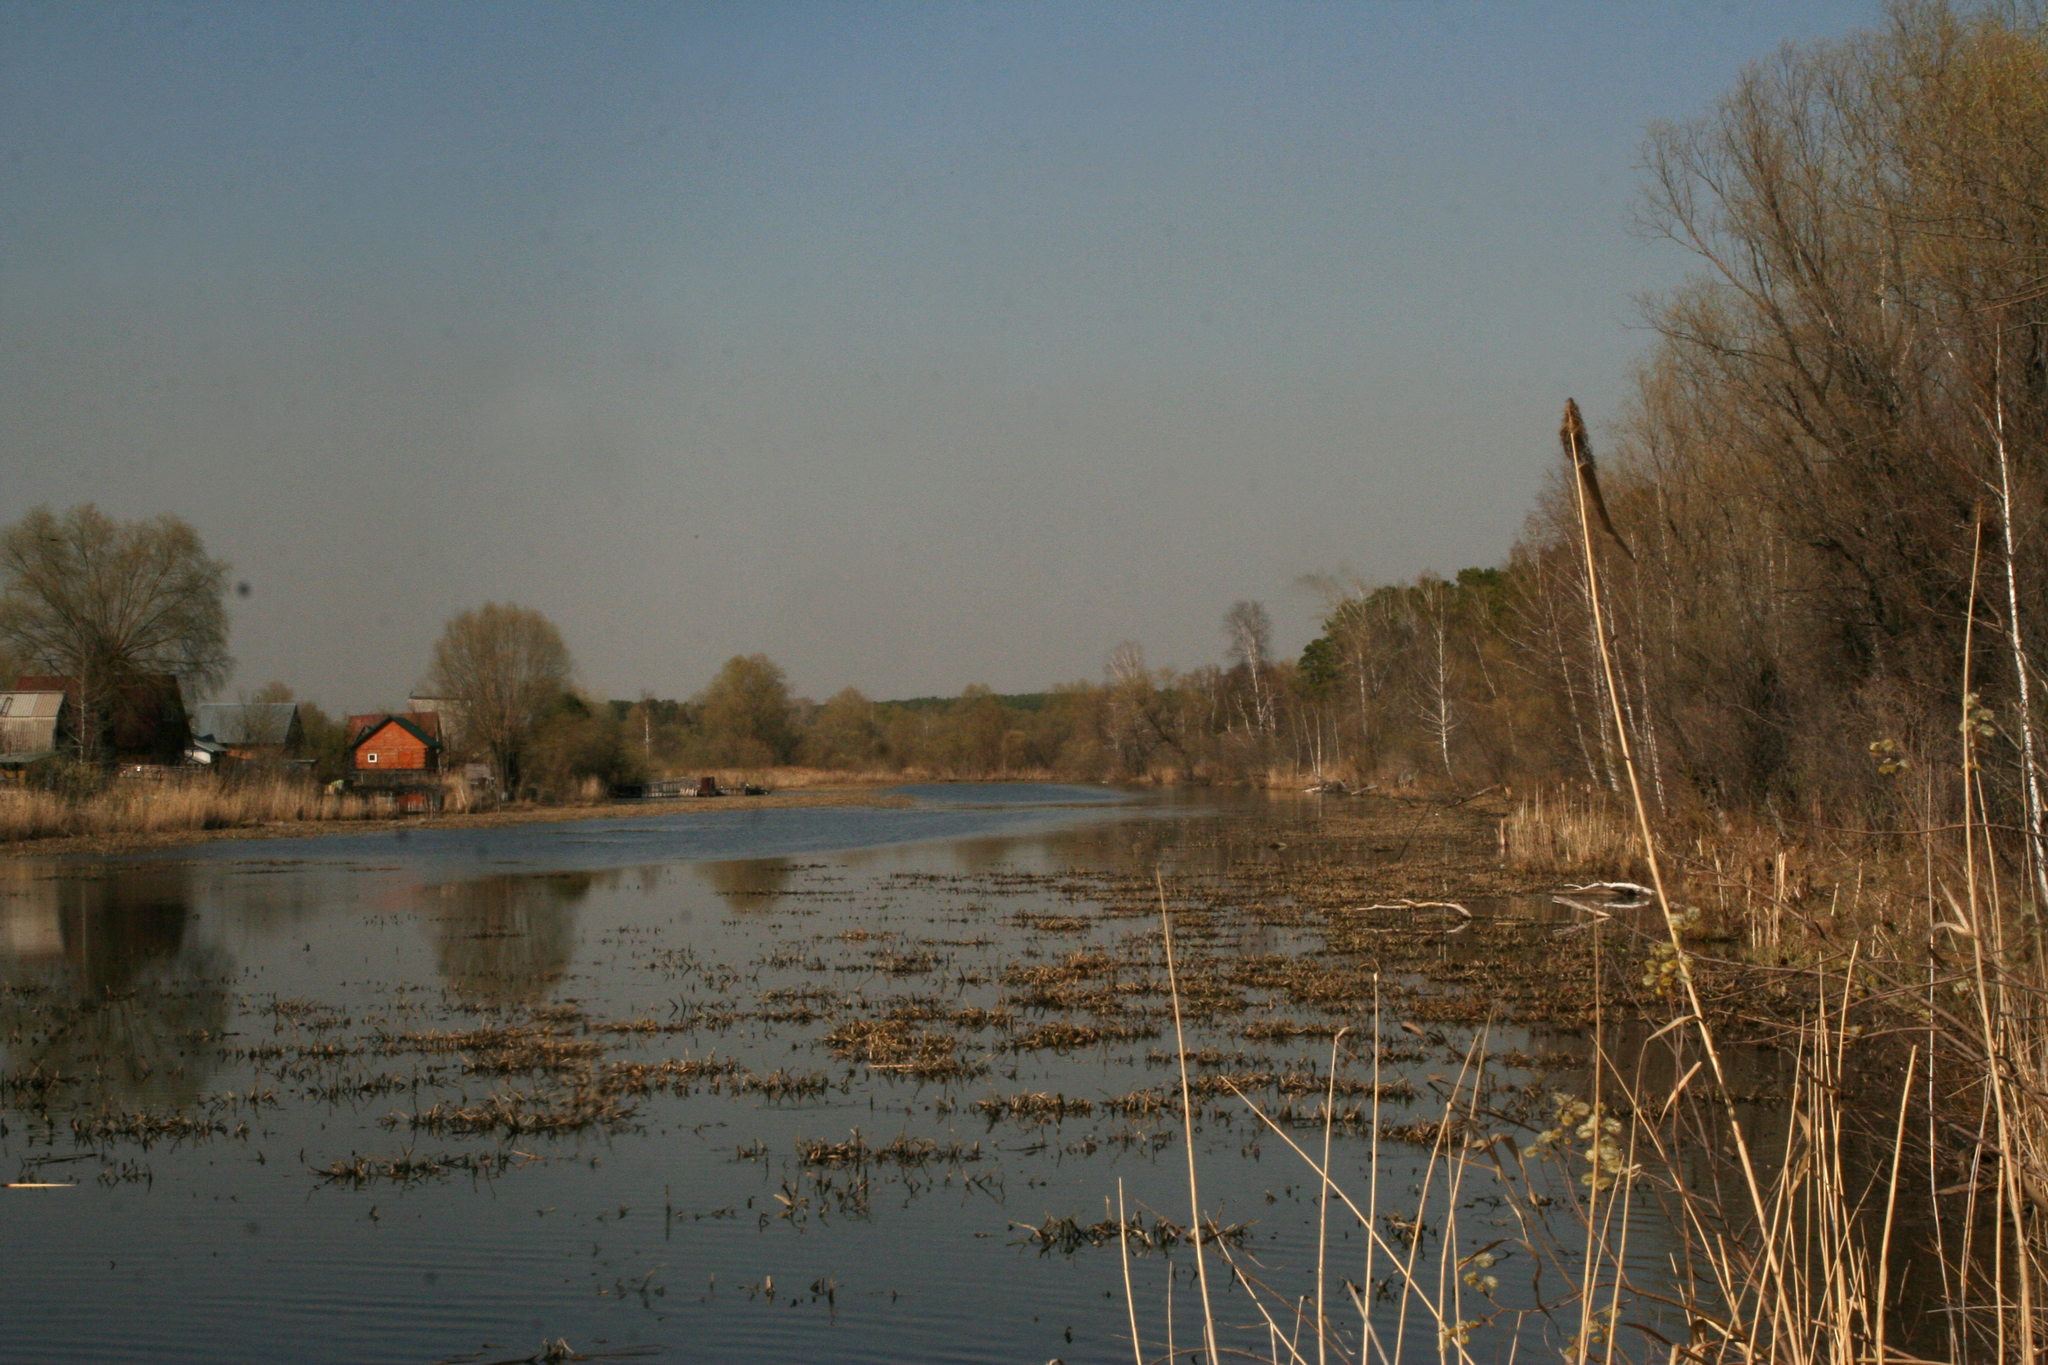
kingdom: Plantae
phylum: Tracheophyta
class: Liliopsida
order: Alismatales
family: Hydrocharitaceae
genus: Stratiotes
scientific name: Stratiotes aloides
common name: Water-soldier
